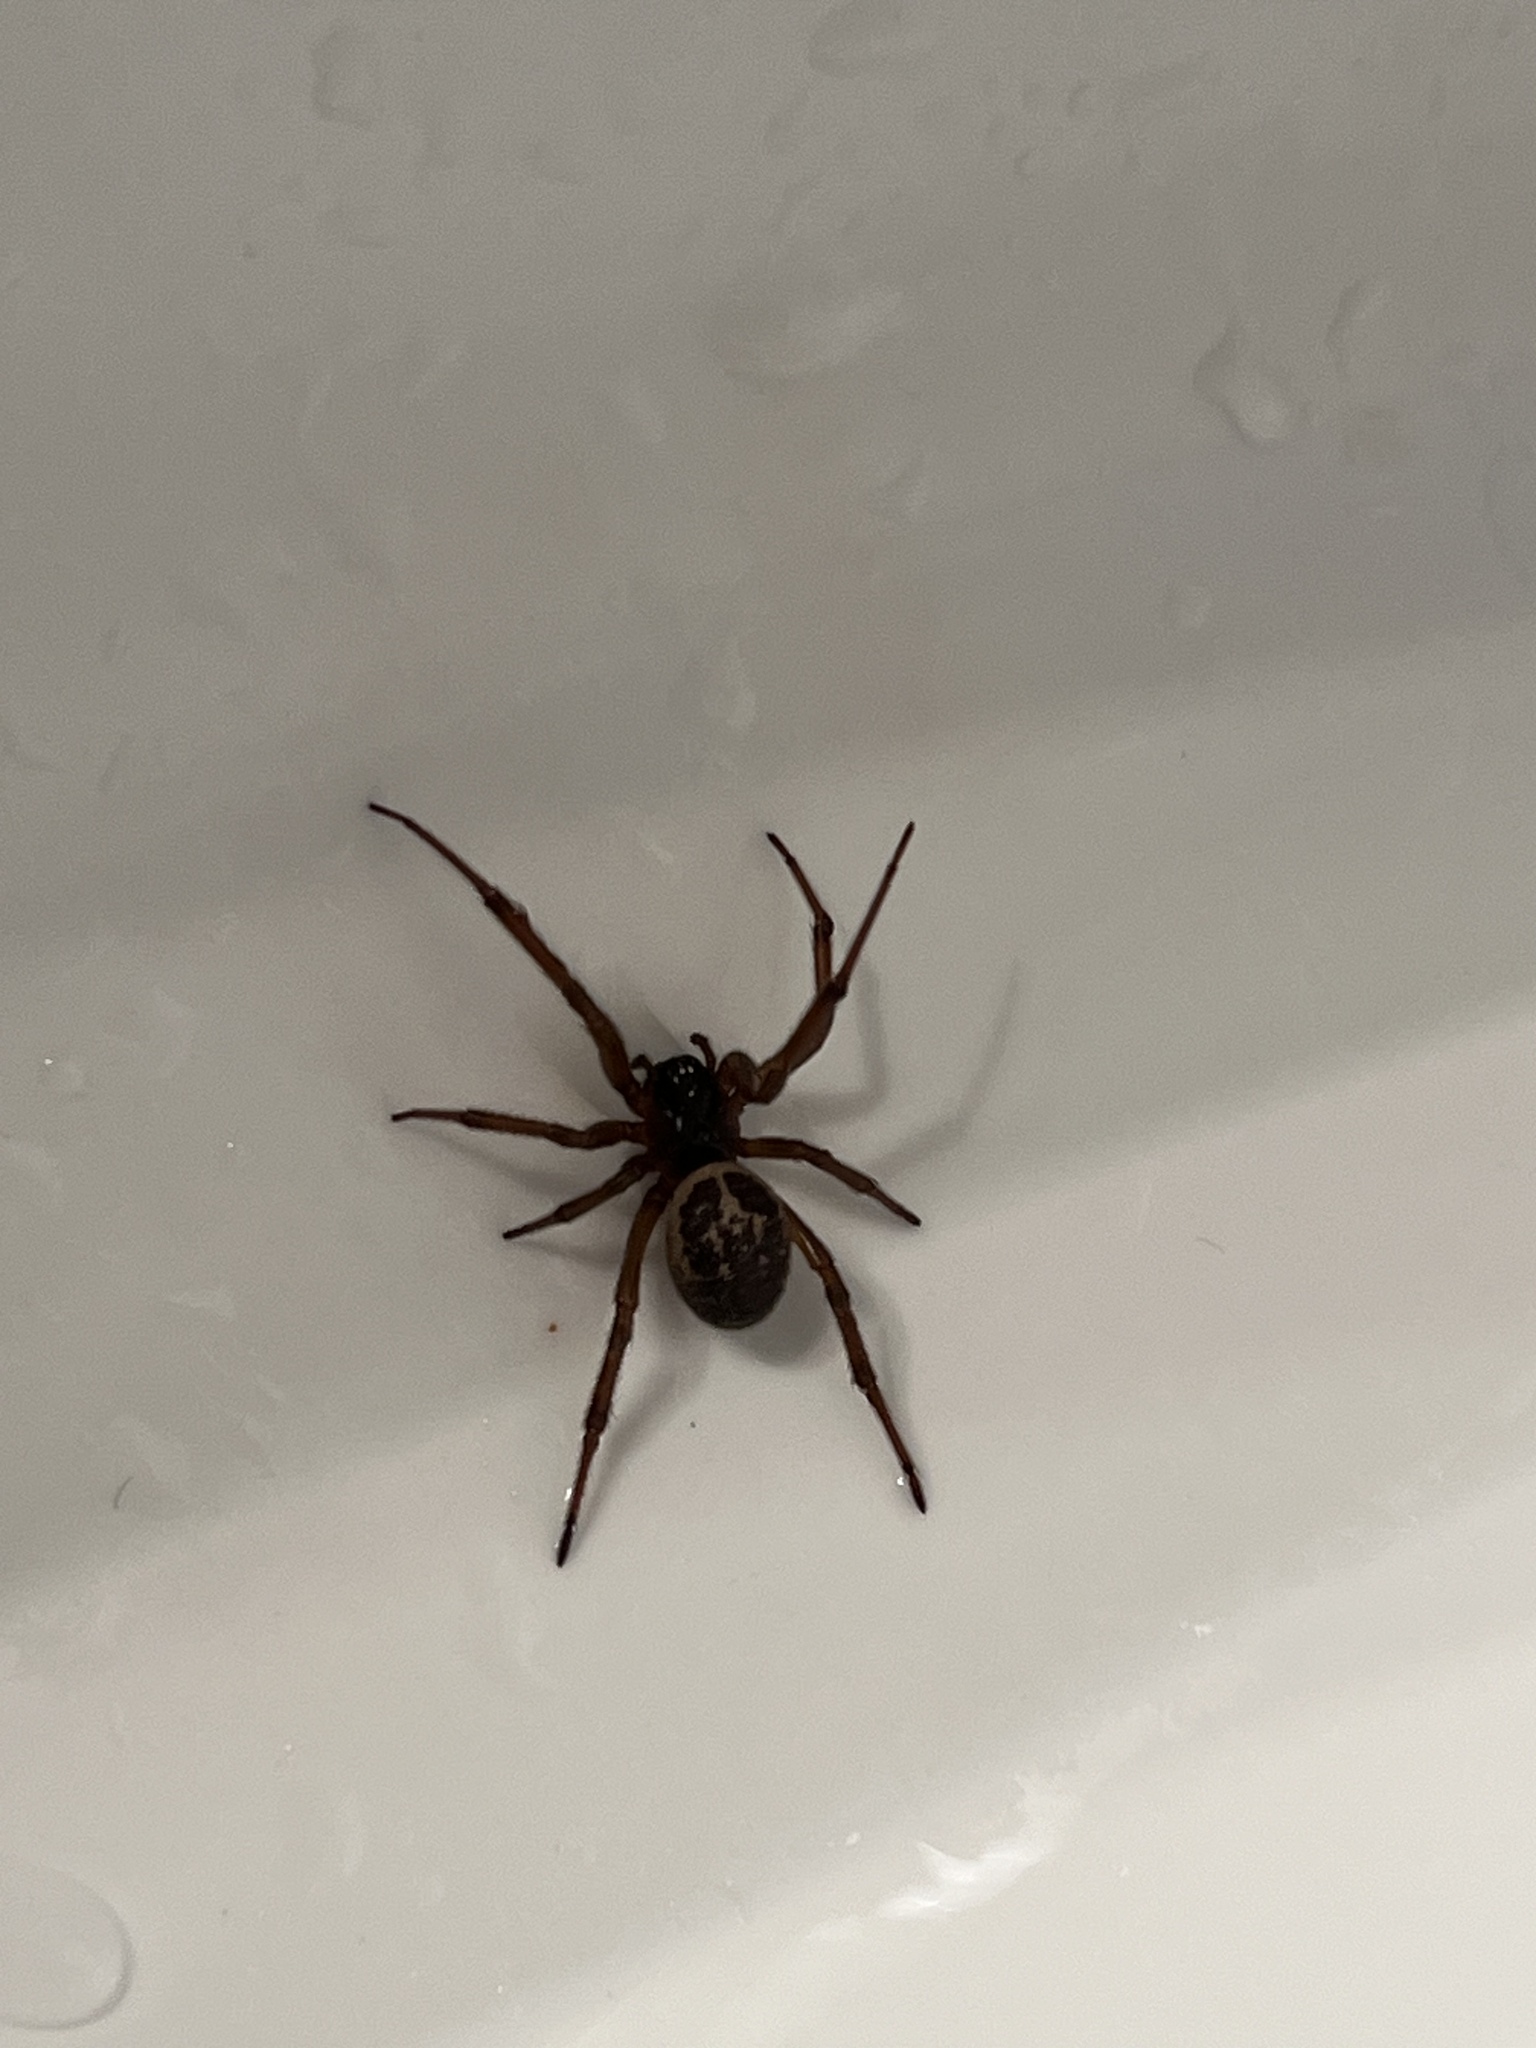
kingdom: Animalia
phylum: Arthropoda
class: Arachnida
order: Araneae
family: Theridiidae
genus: Steatoda
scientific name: Steatoda nobilis
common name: Cobweb weaver
